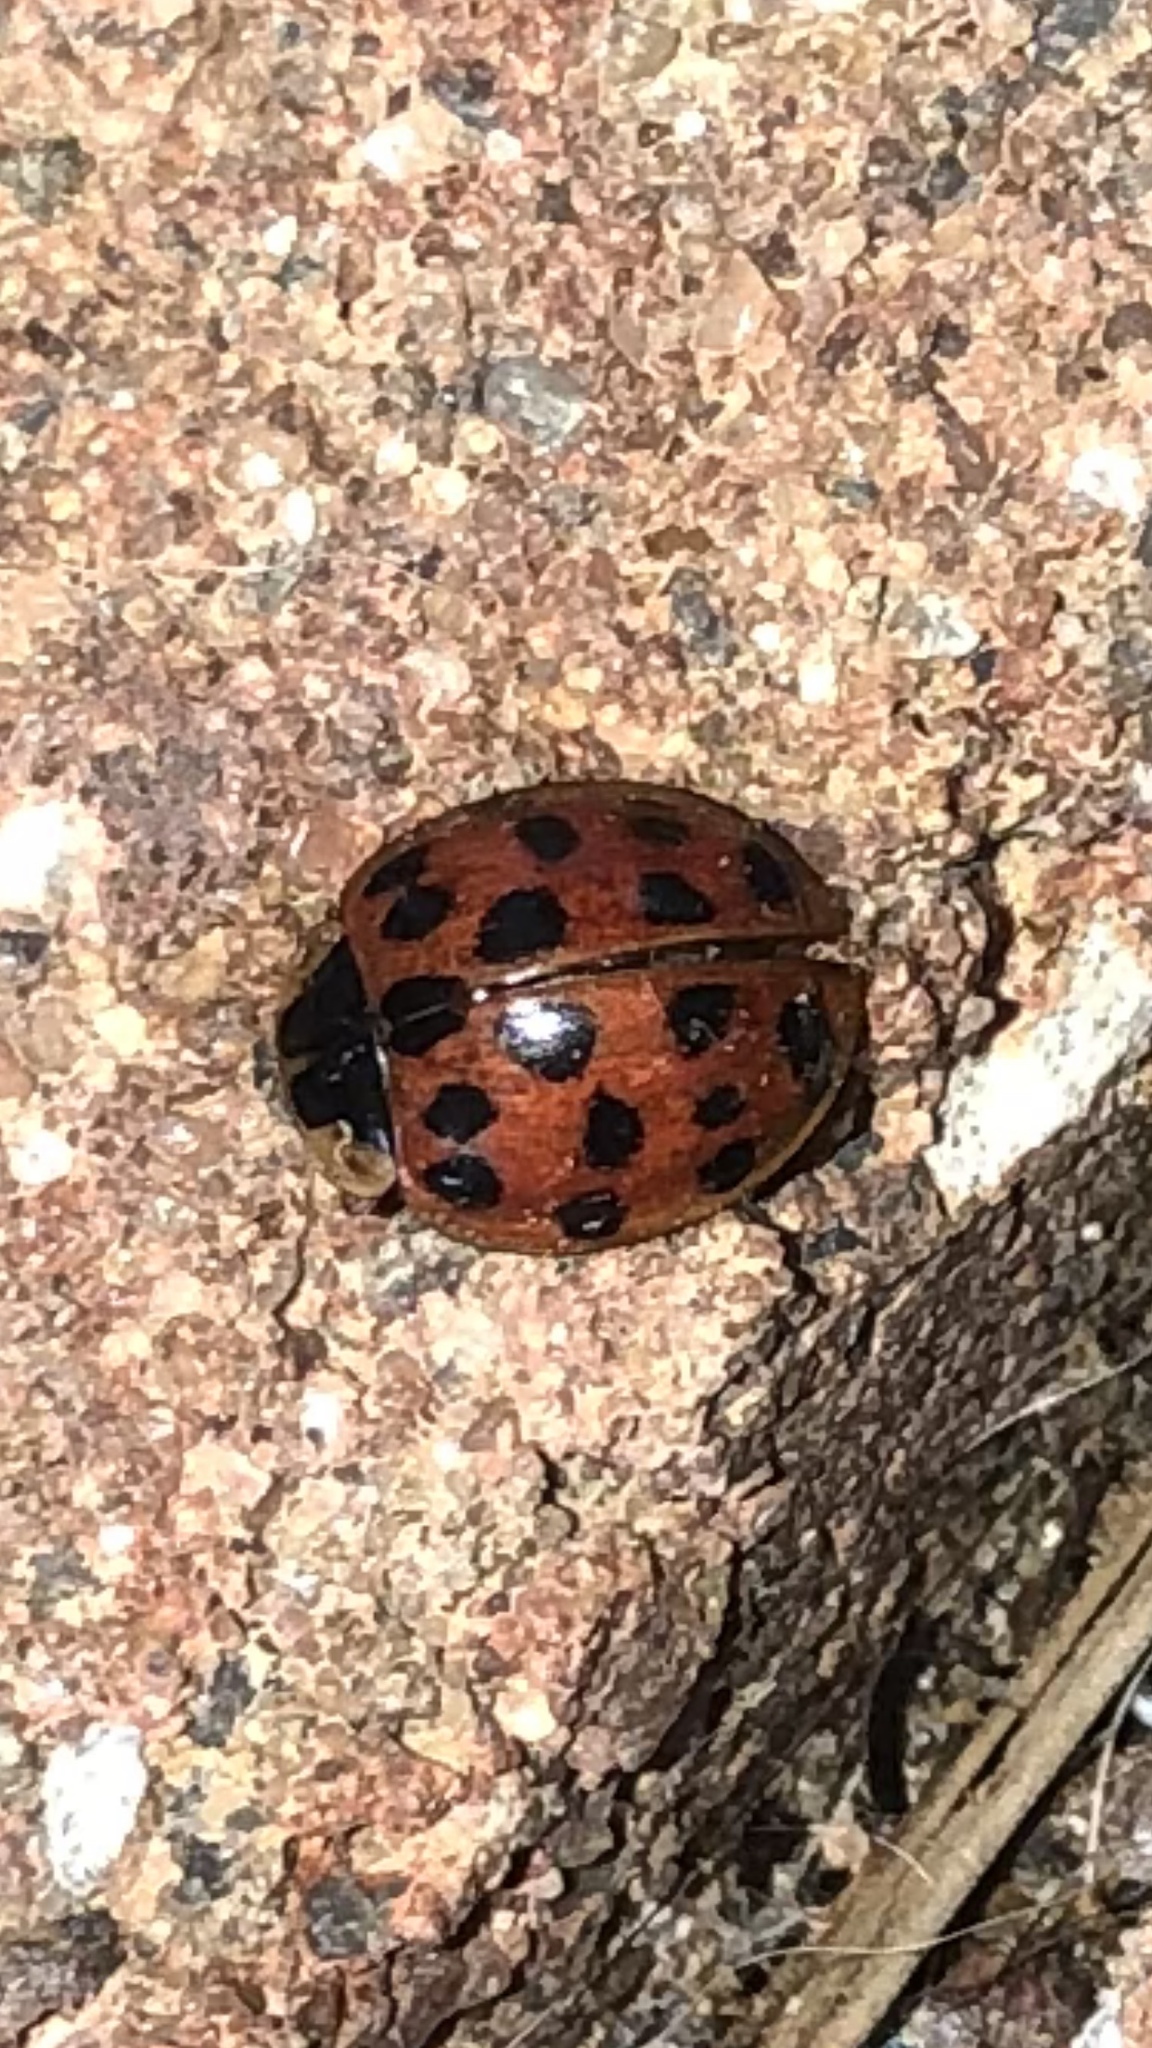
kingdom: Animalia
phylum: Arthropoda
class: Insecta
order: Coleoptera
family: Coccinellidae
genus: Harmonia
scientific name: Harmonia axyridis
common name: Harlequin ladybird
